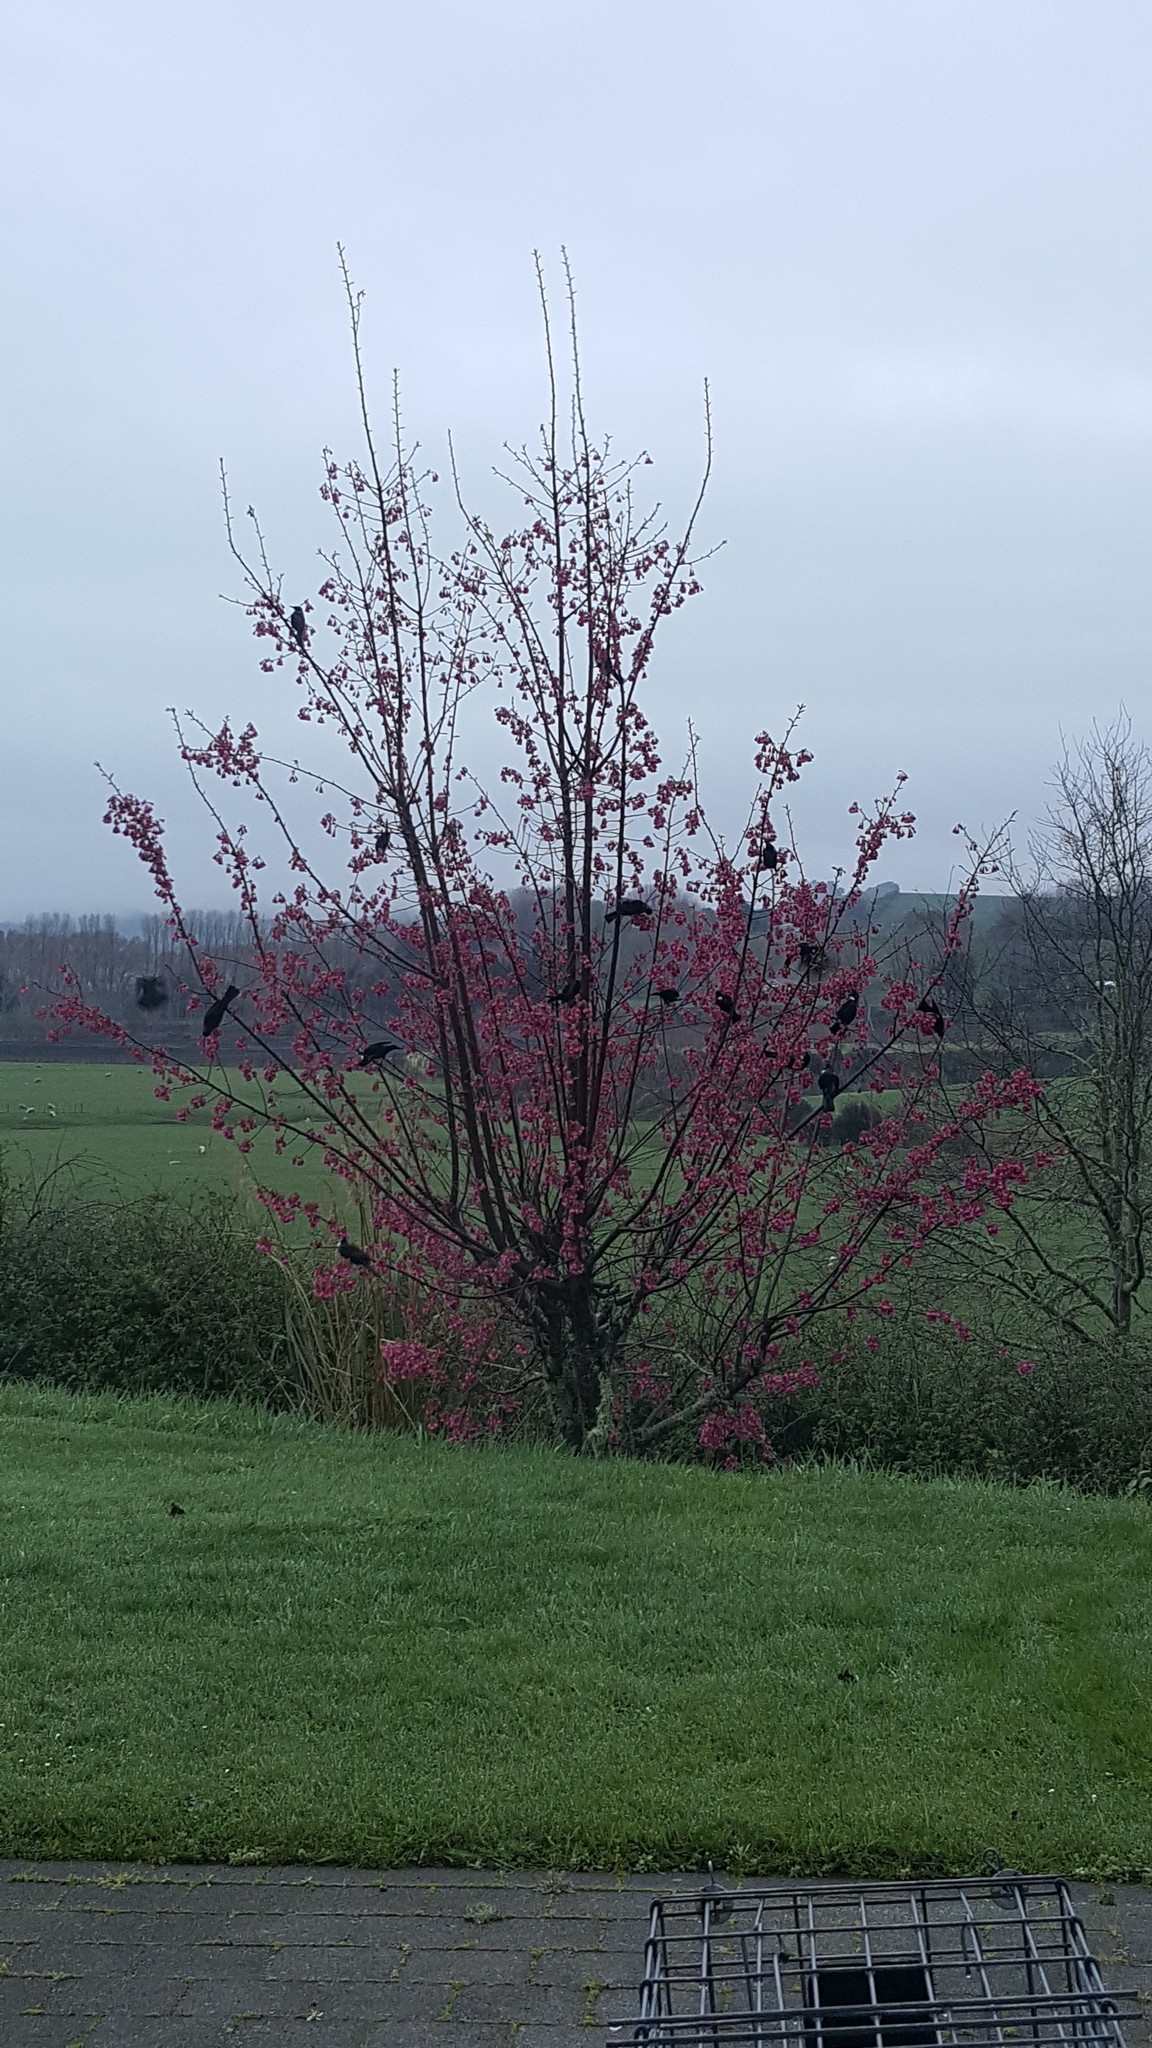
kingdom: Animalia
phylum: Chordata
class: Aves
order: Passeriformes
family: Meliphagidae
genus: Prosthemadera
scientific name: Prosthemadera novaeseelandiae
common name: Tui
